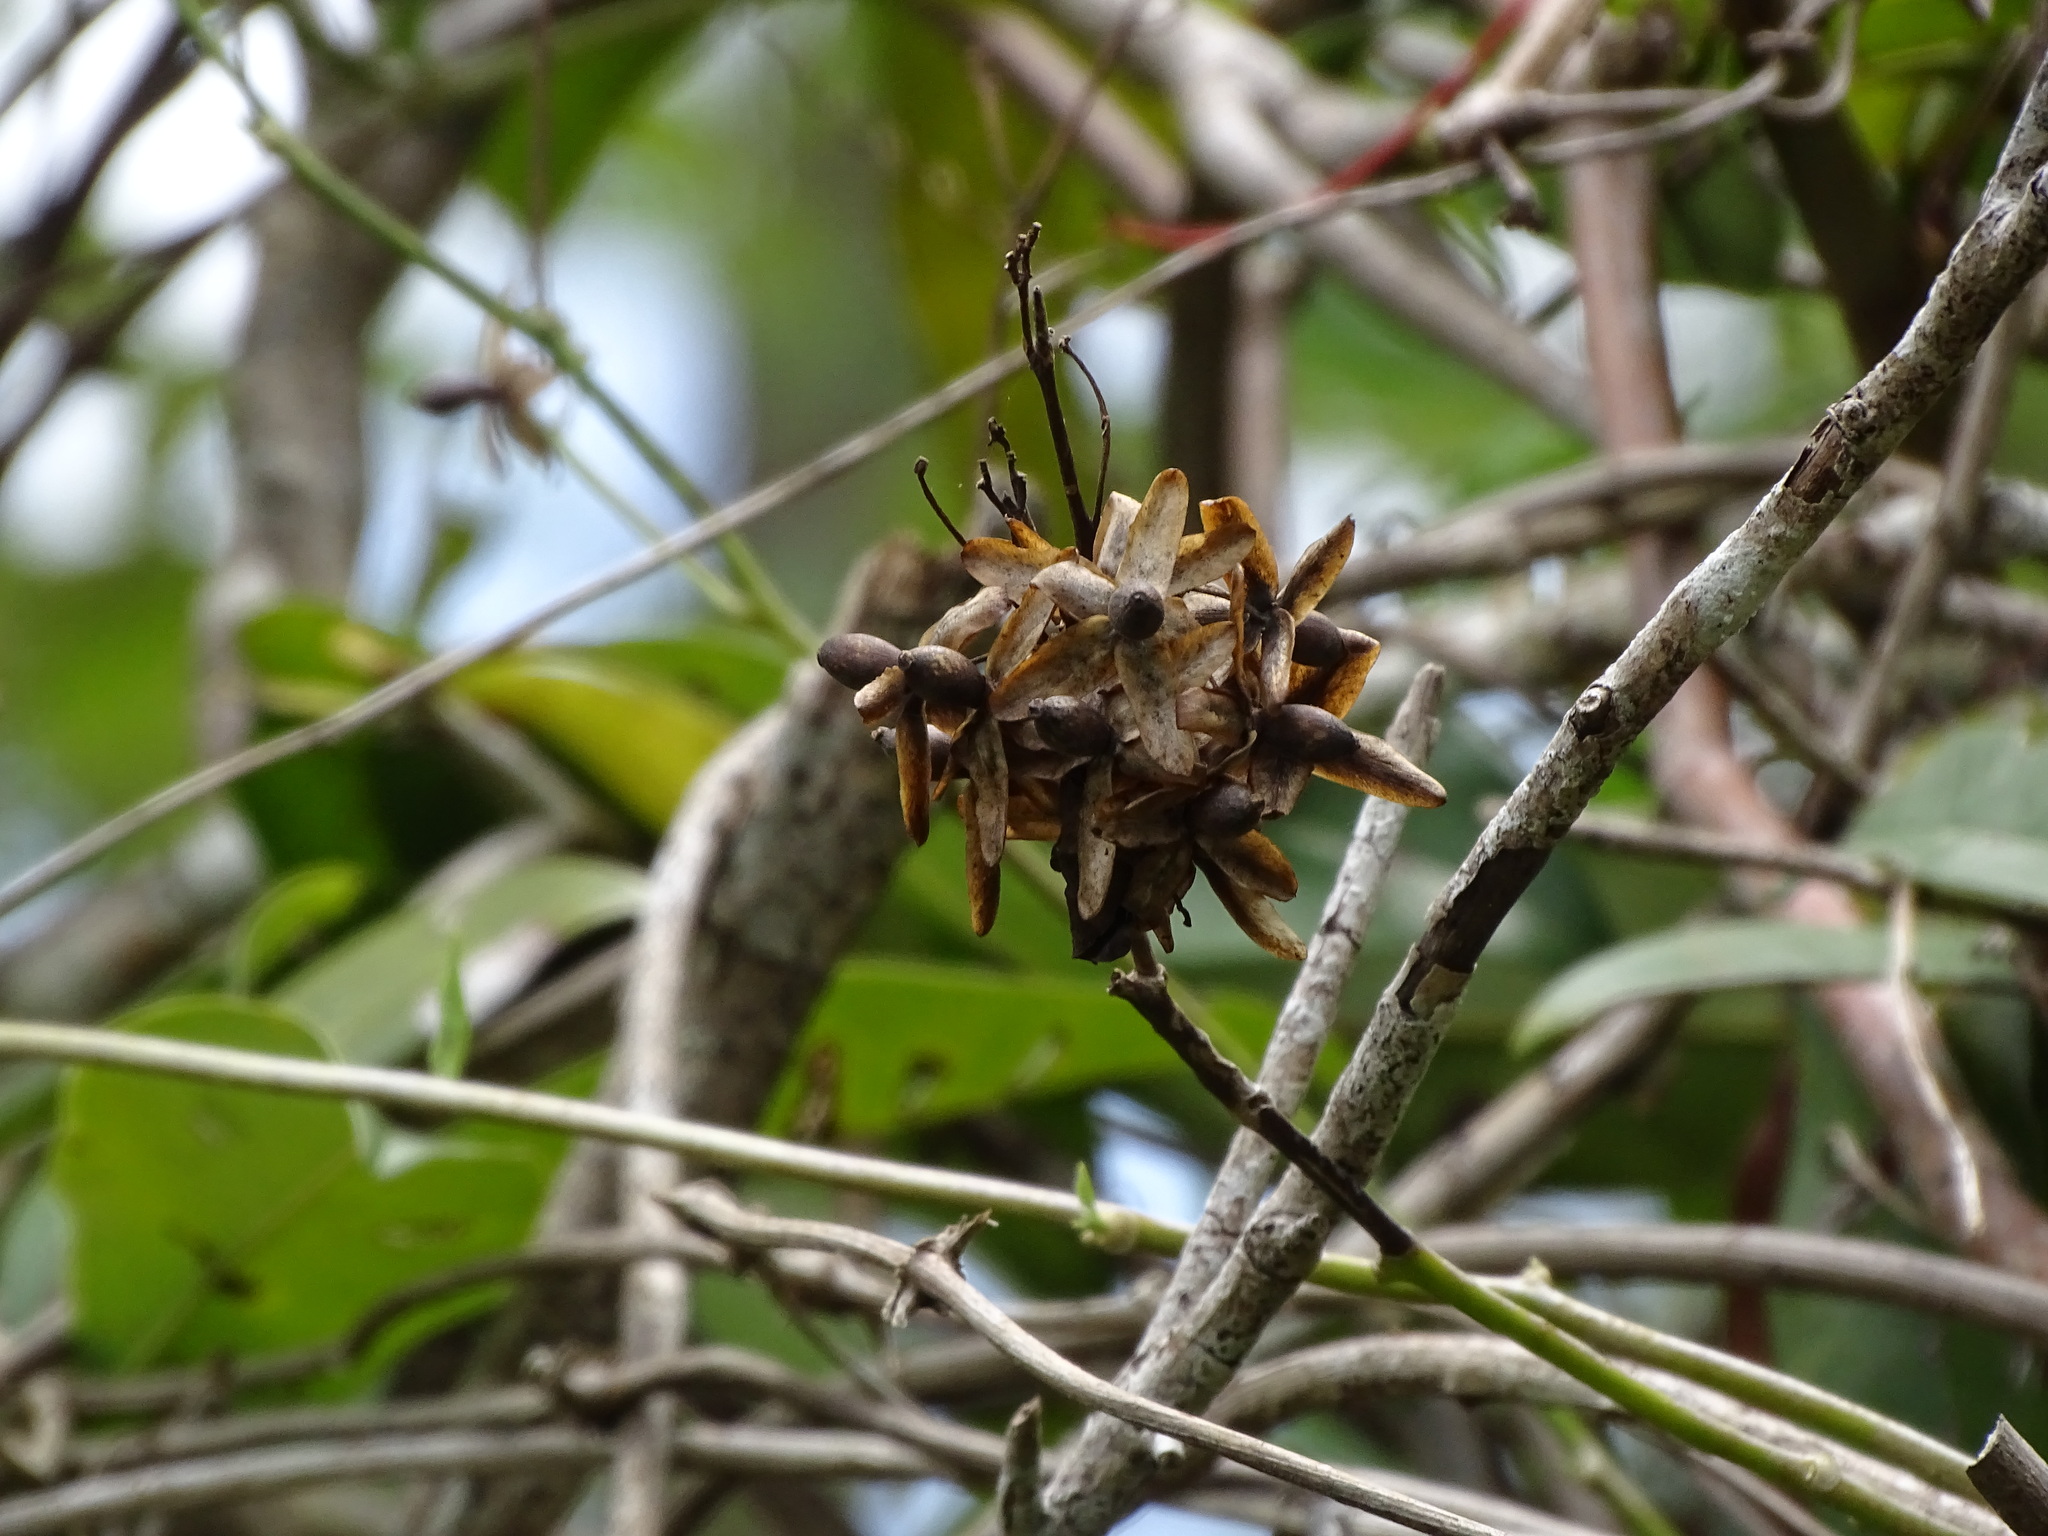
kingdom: Plantae
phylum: Tracheophyta
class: Magnoliopsida
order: Solanales
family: Convolvulaceae
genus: Ipomoea
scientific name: Ipomoea corymbosa
